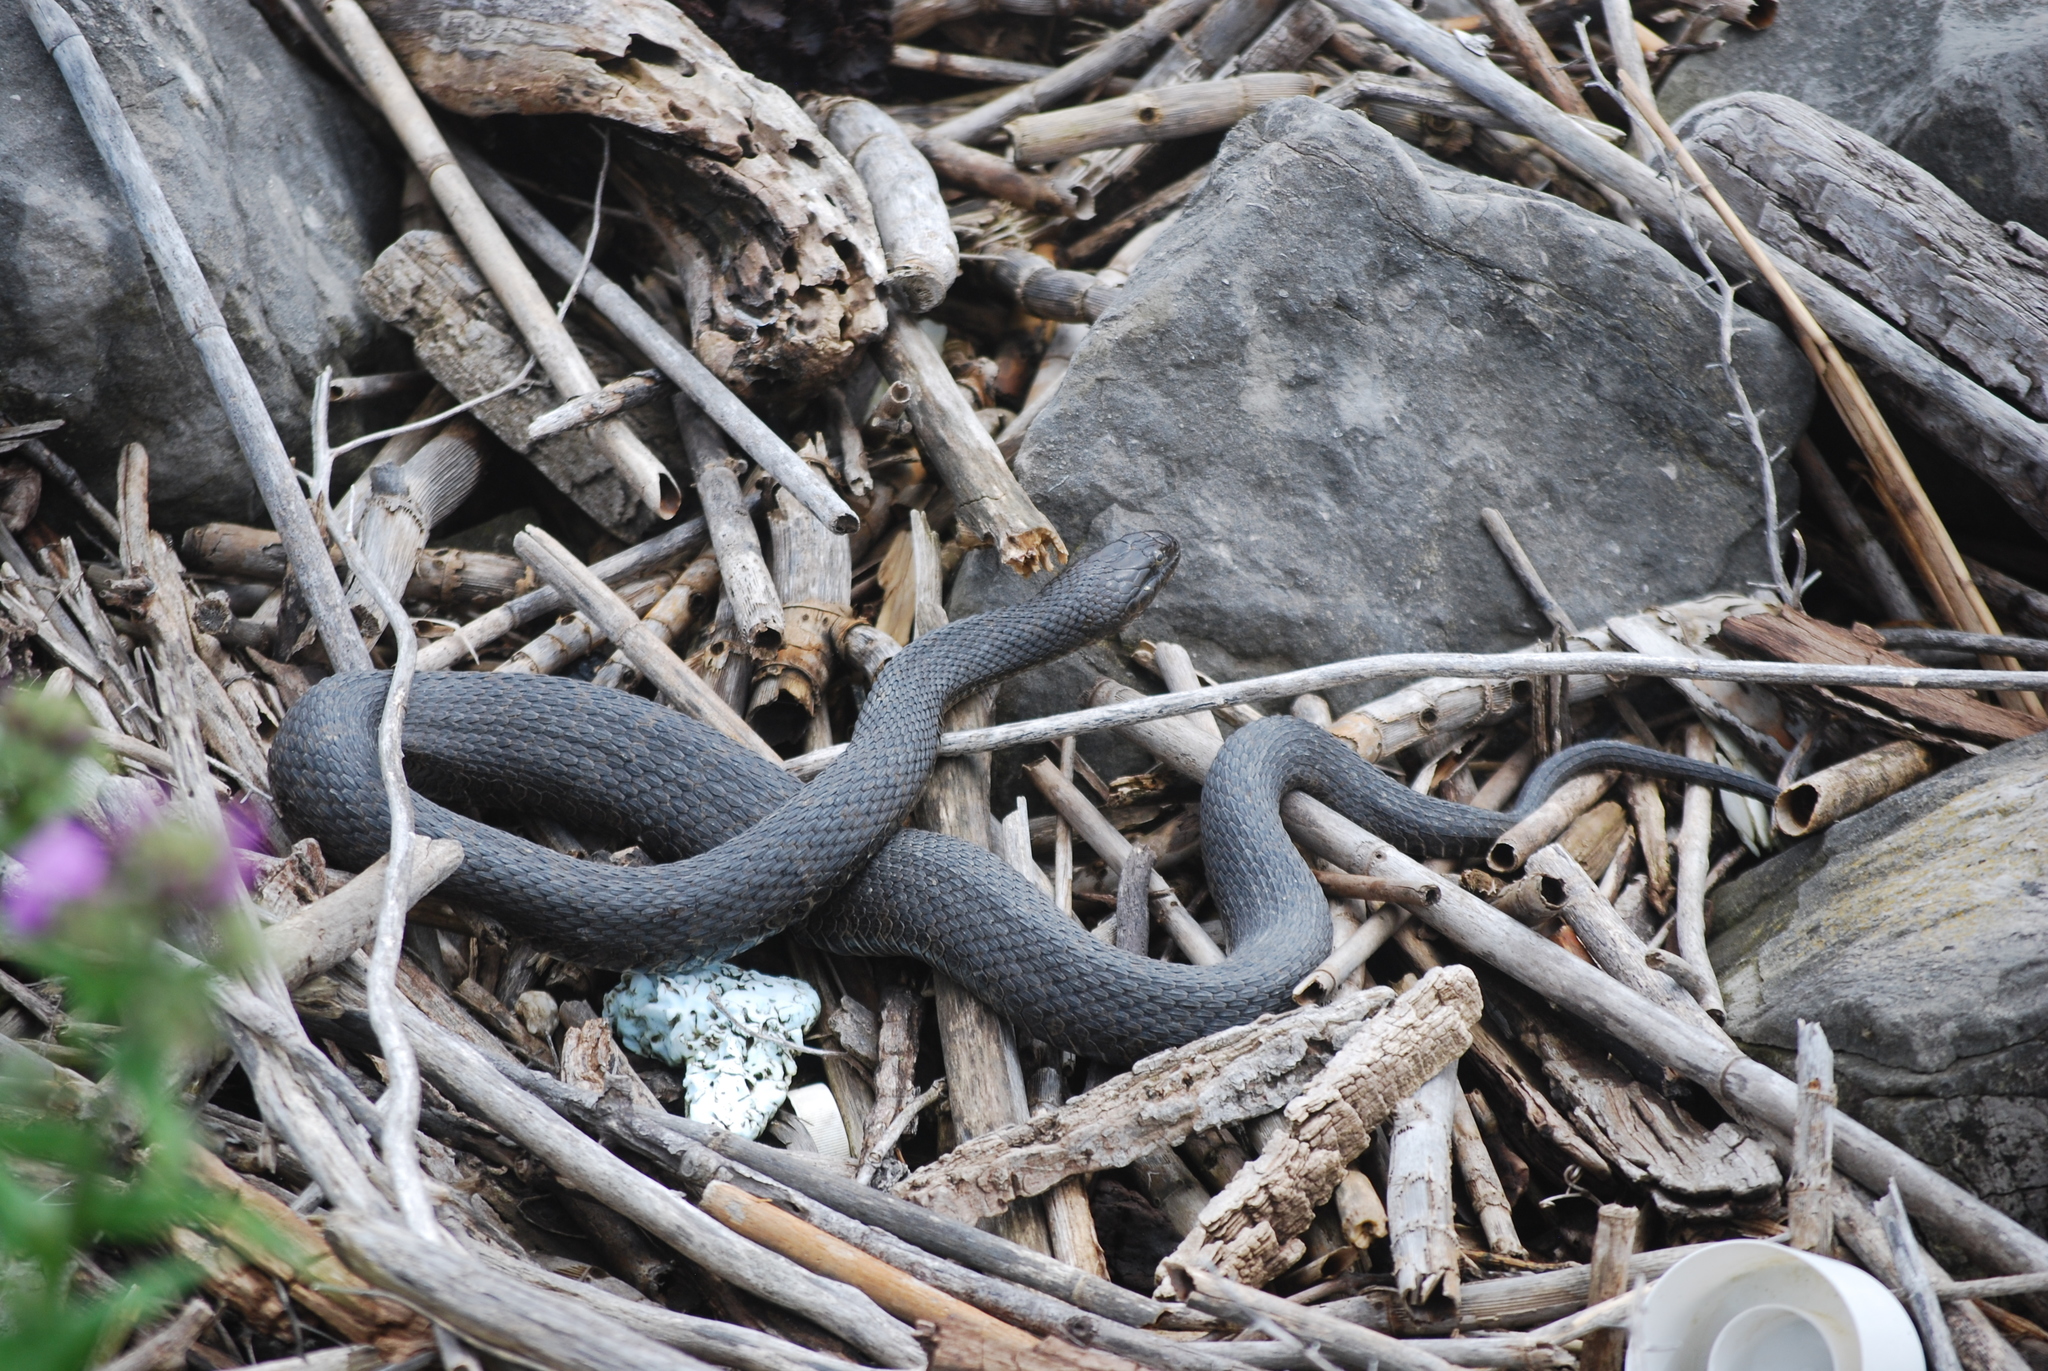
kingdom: Animalia
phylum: Chordata
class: Squamata
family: Colubridae
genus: Nerodia
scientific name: Nerodia sipedon
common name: Northern water snake
